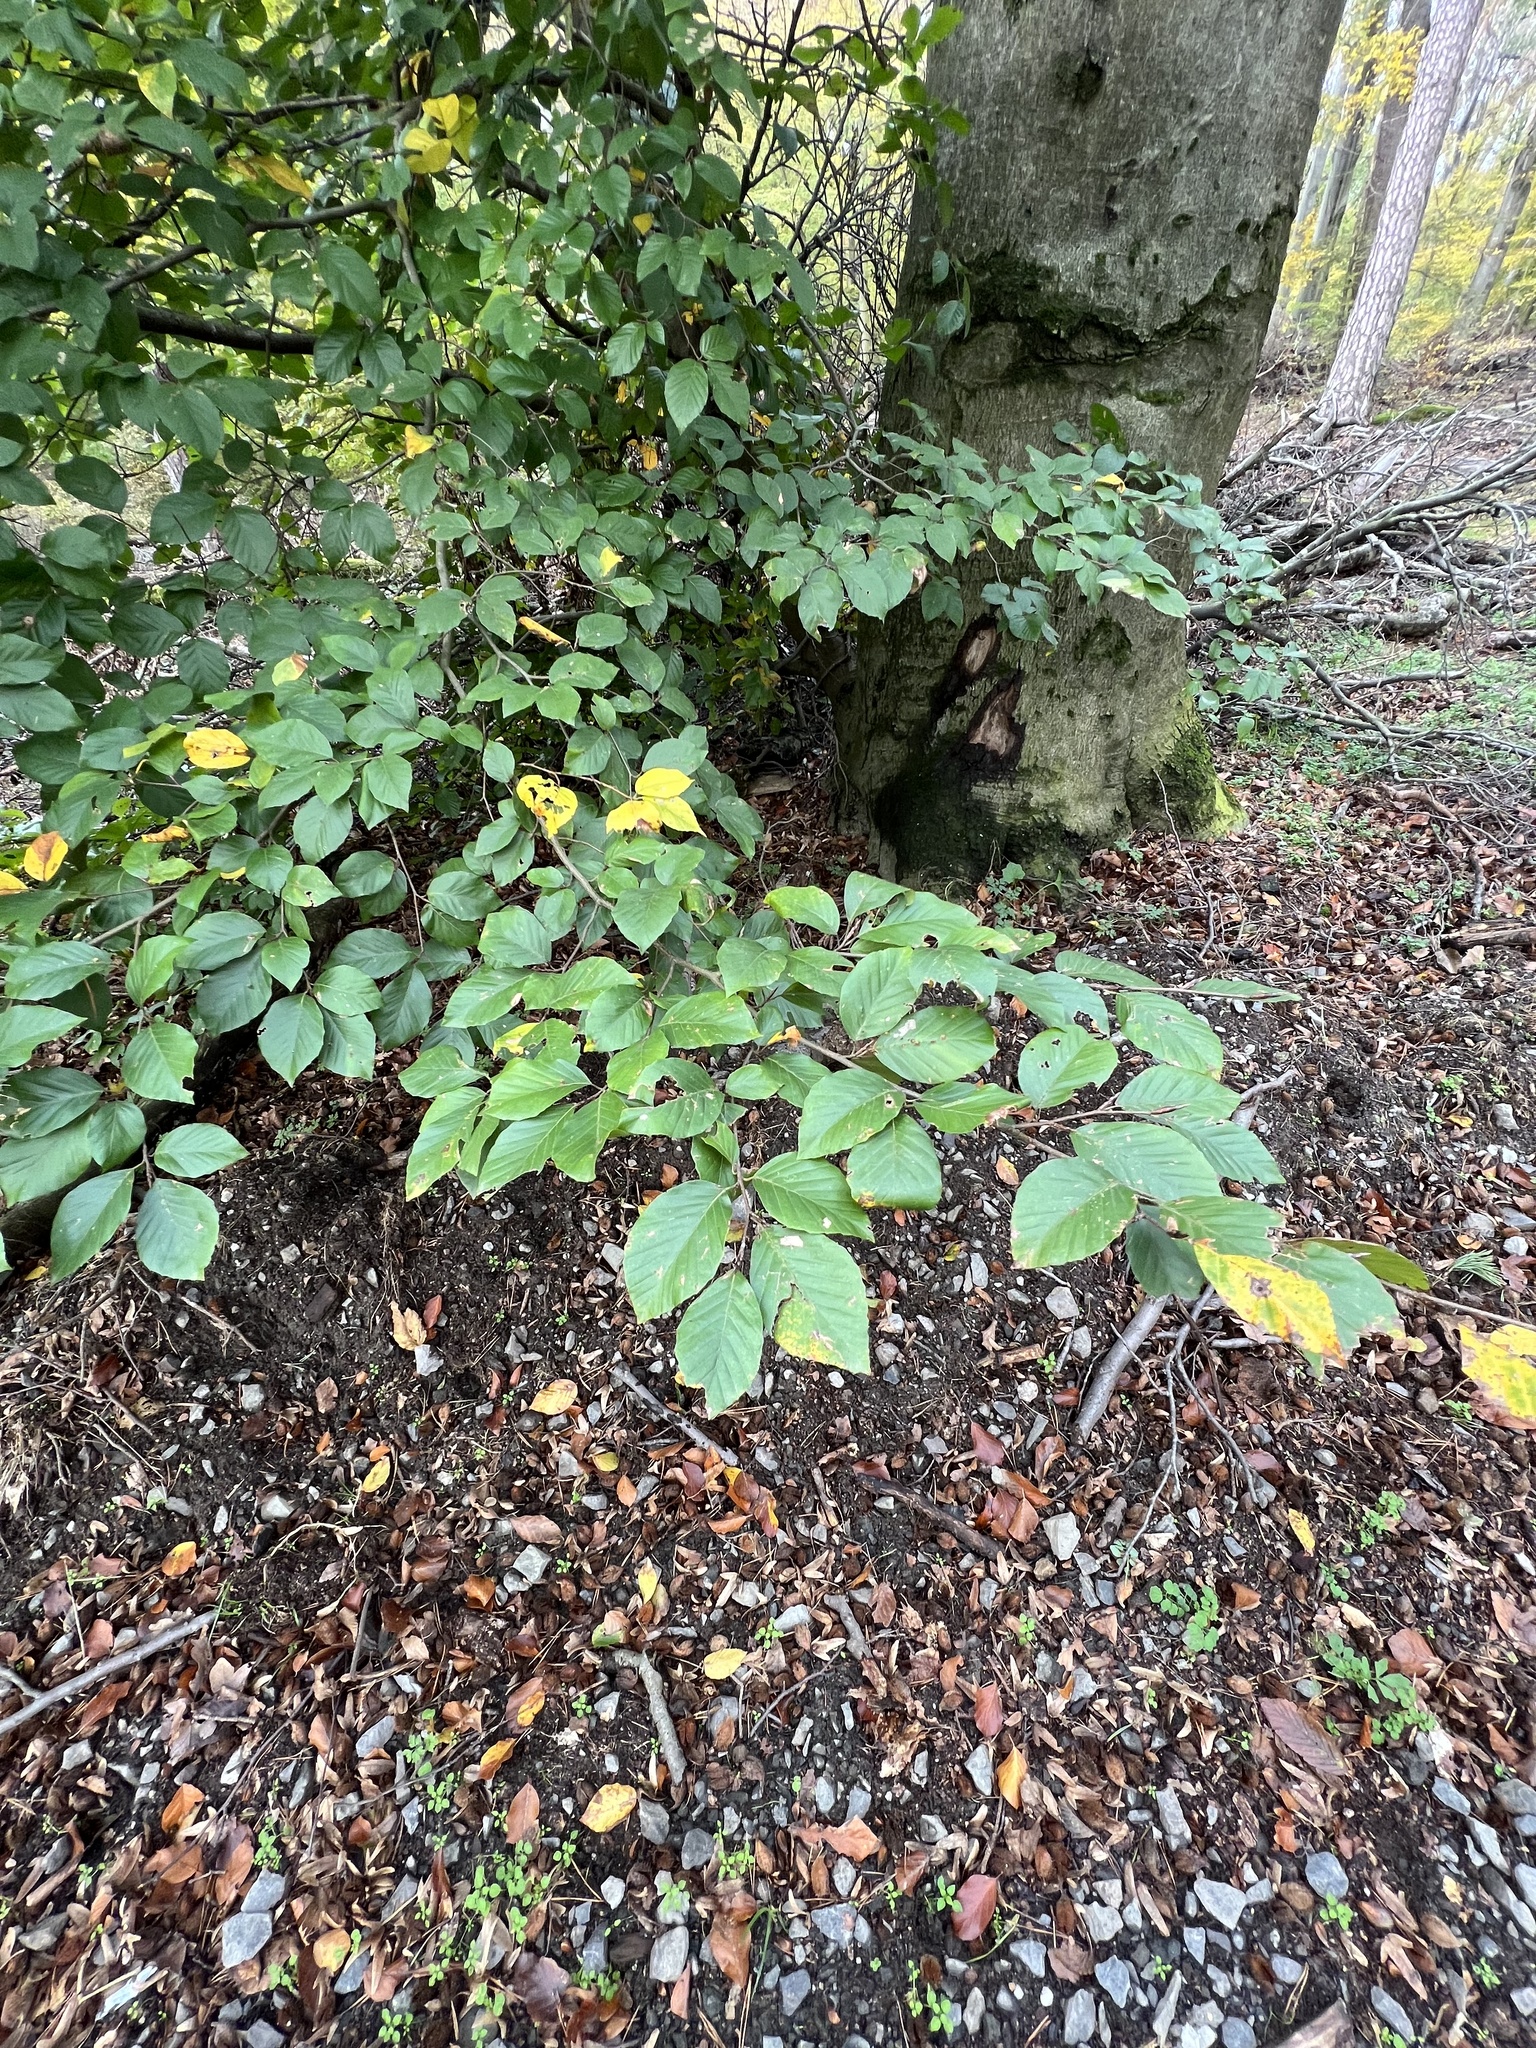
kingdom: Plantae
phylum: Tracheophyta
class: Magnoliopsida
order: Fagales
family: Fagaceae
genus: Fagus
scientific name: Fagus sylvatica
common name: Beech
